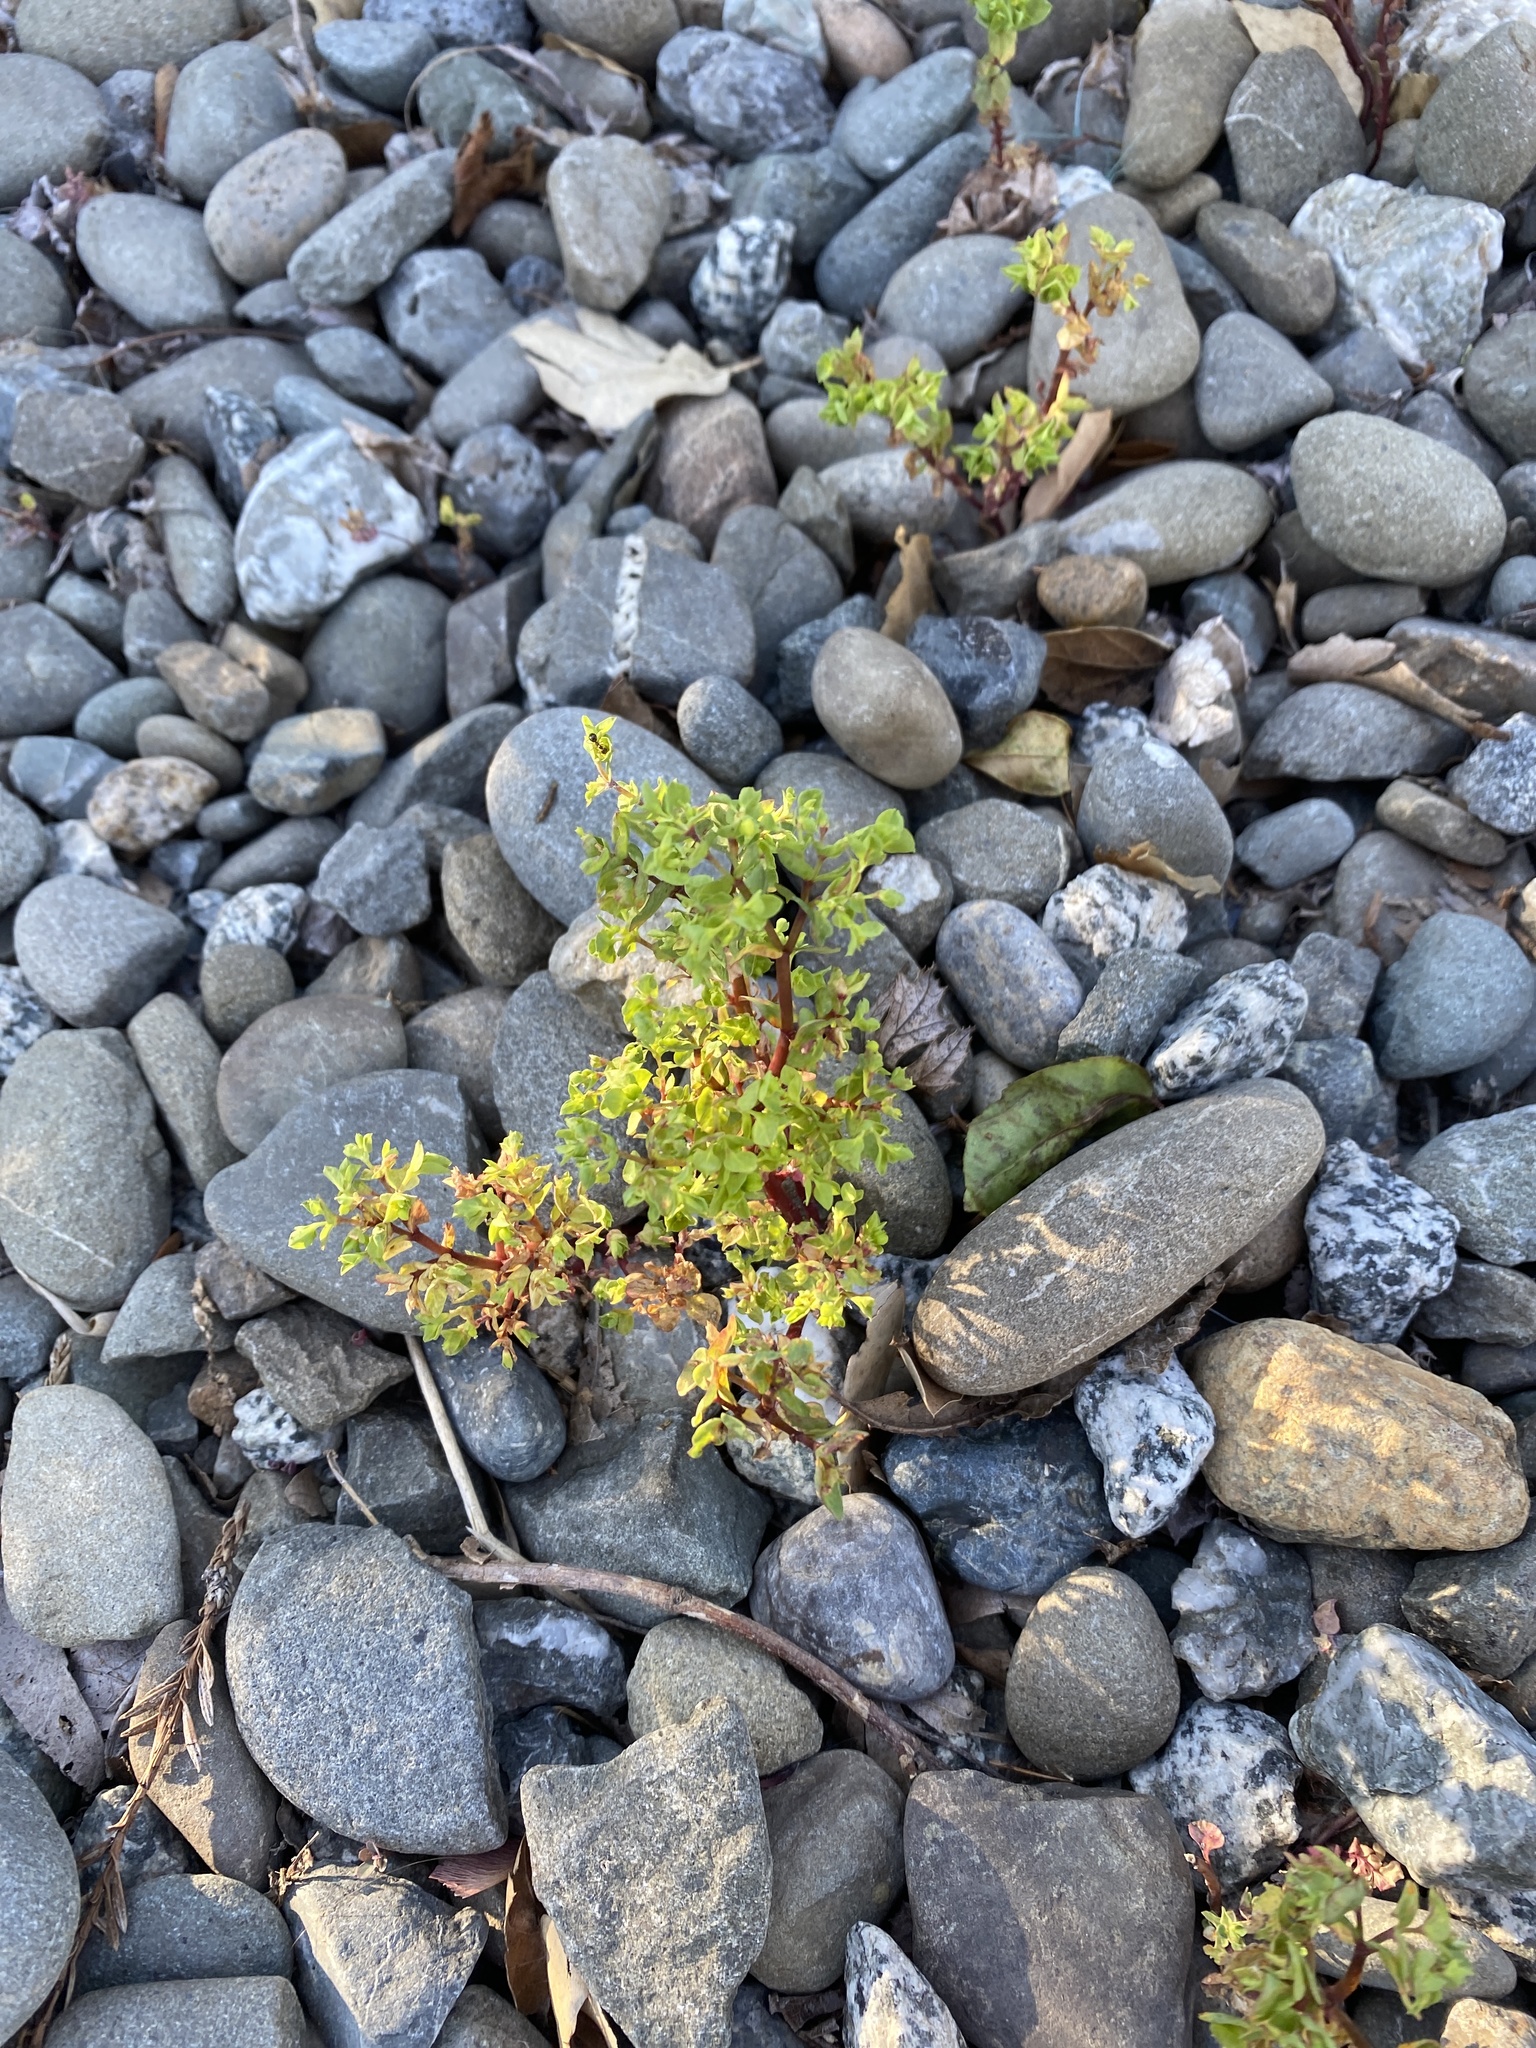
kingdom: Plantae
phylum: Tracheophyta
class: Magnoliopsida
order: Malpighiales
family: Euphorbiaceae
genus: Euphorbia
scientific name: Euphorbia peplus
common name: Petty spurge
